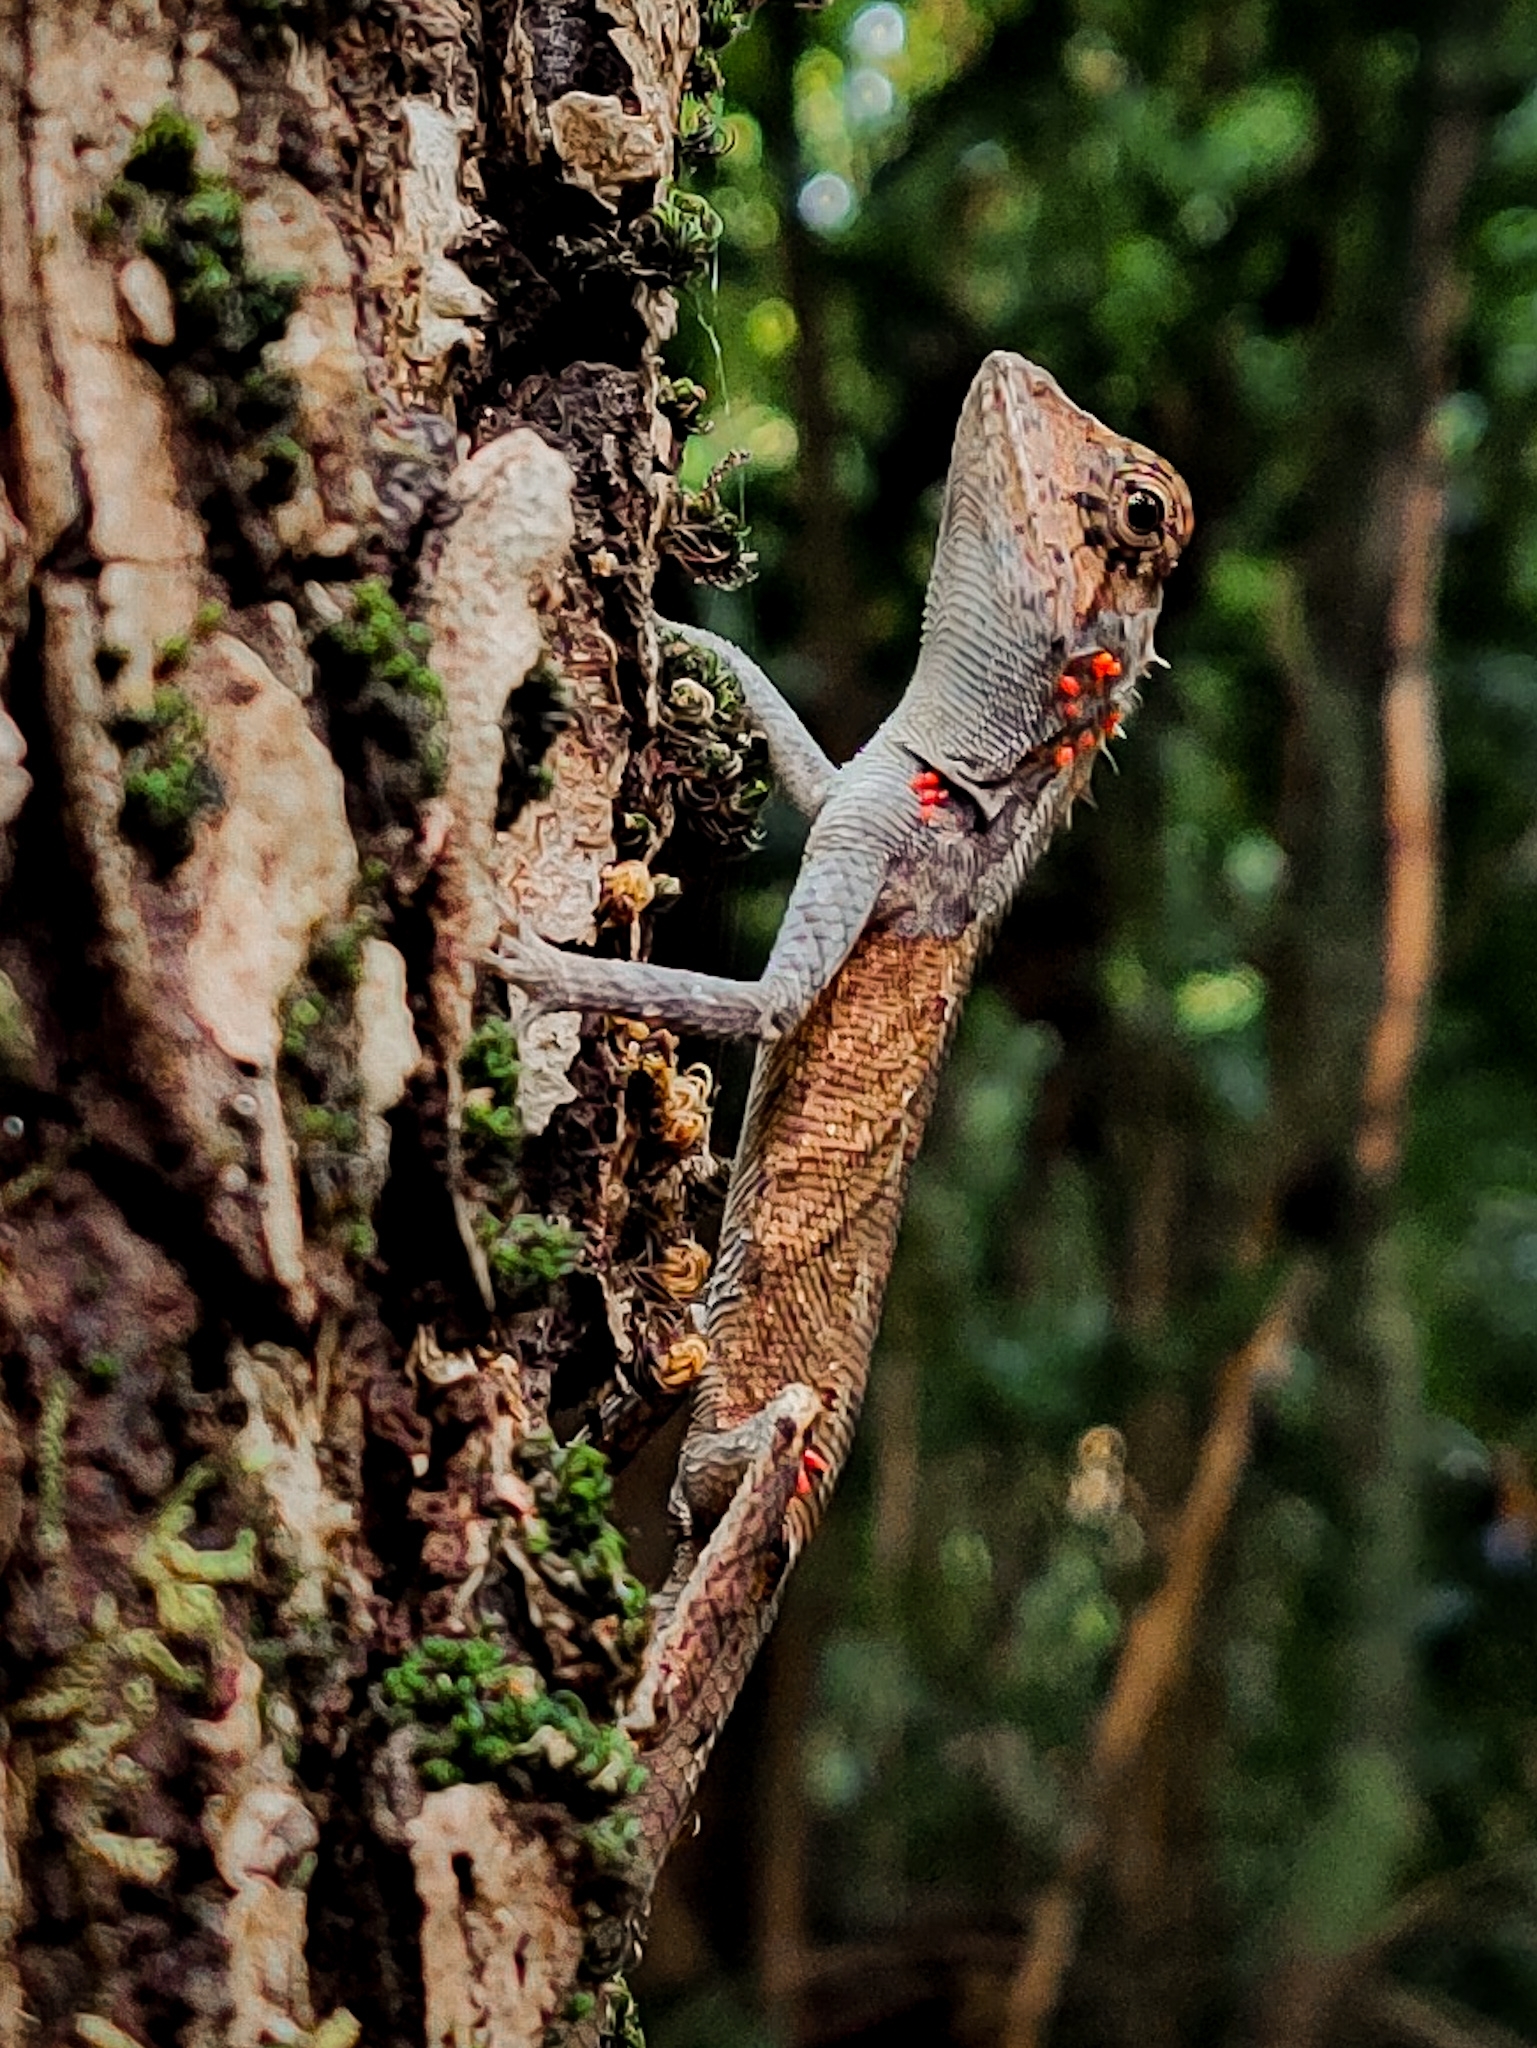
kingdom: Animalia
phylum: Chordata
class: Squamata
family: Agamidae
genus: Monilesaurus
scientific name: Monilesaurus rouxii
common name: Roux's forest lizard
